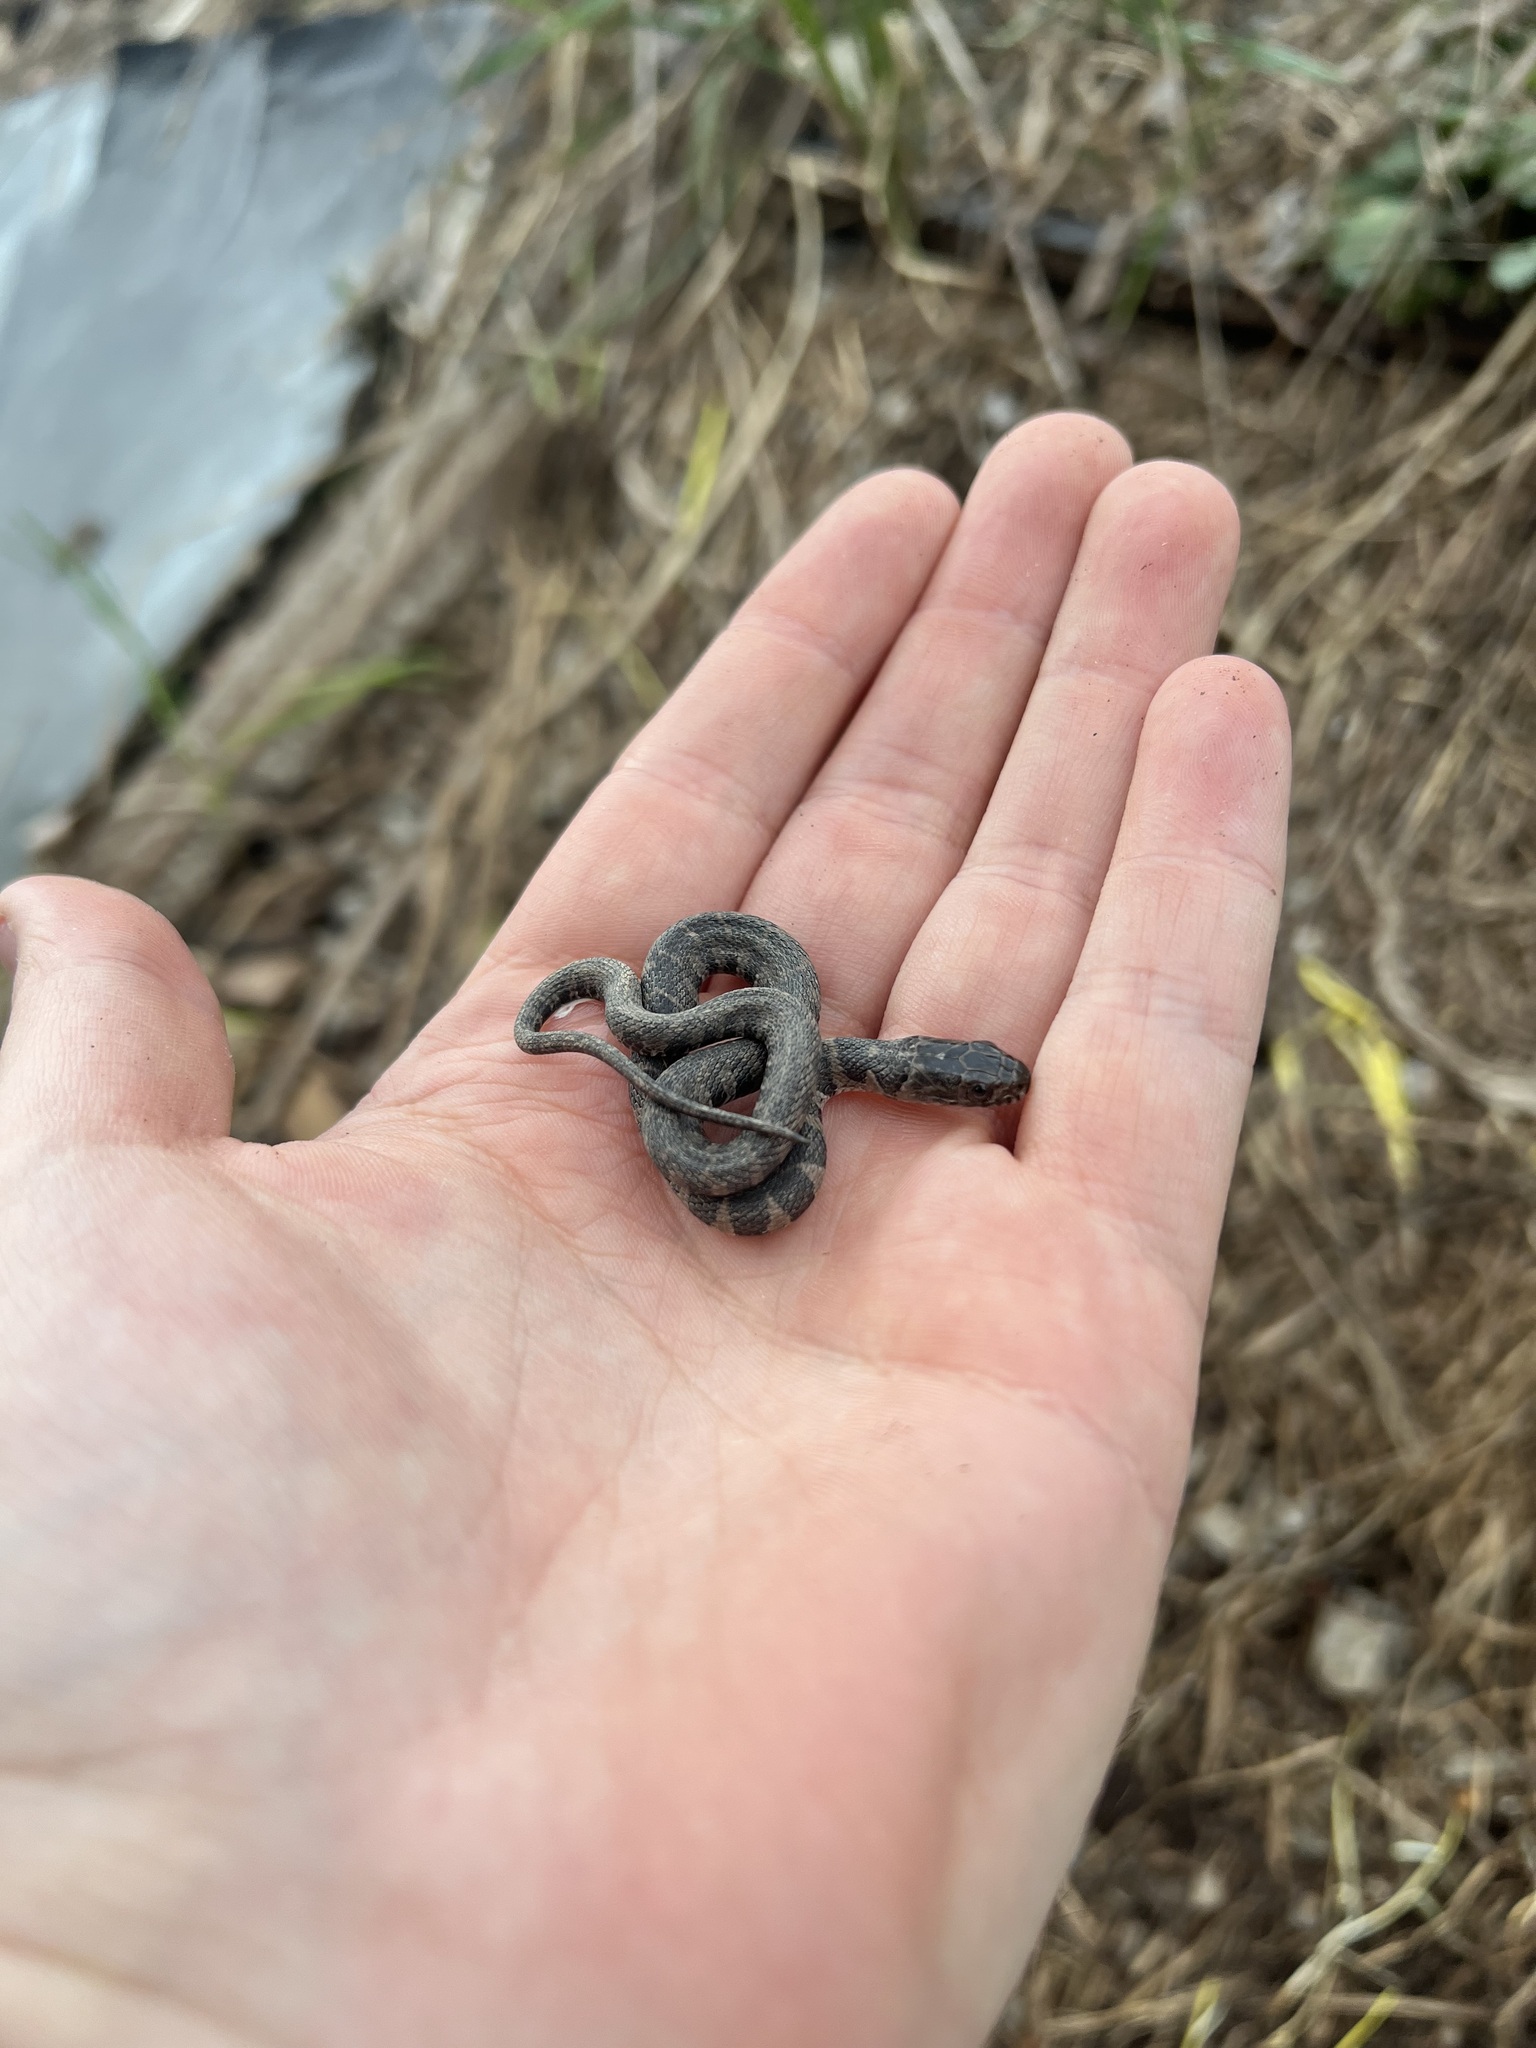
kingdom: Animalia
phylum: Chordata
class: Squamata
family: Colubridae
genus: Nerodia
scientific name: Nerodia sipedon
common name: Northern water snake
